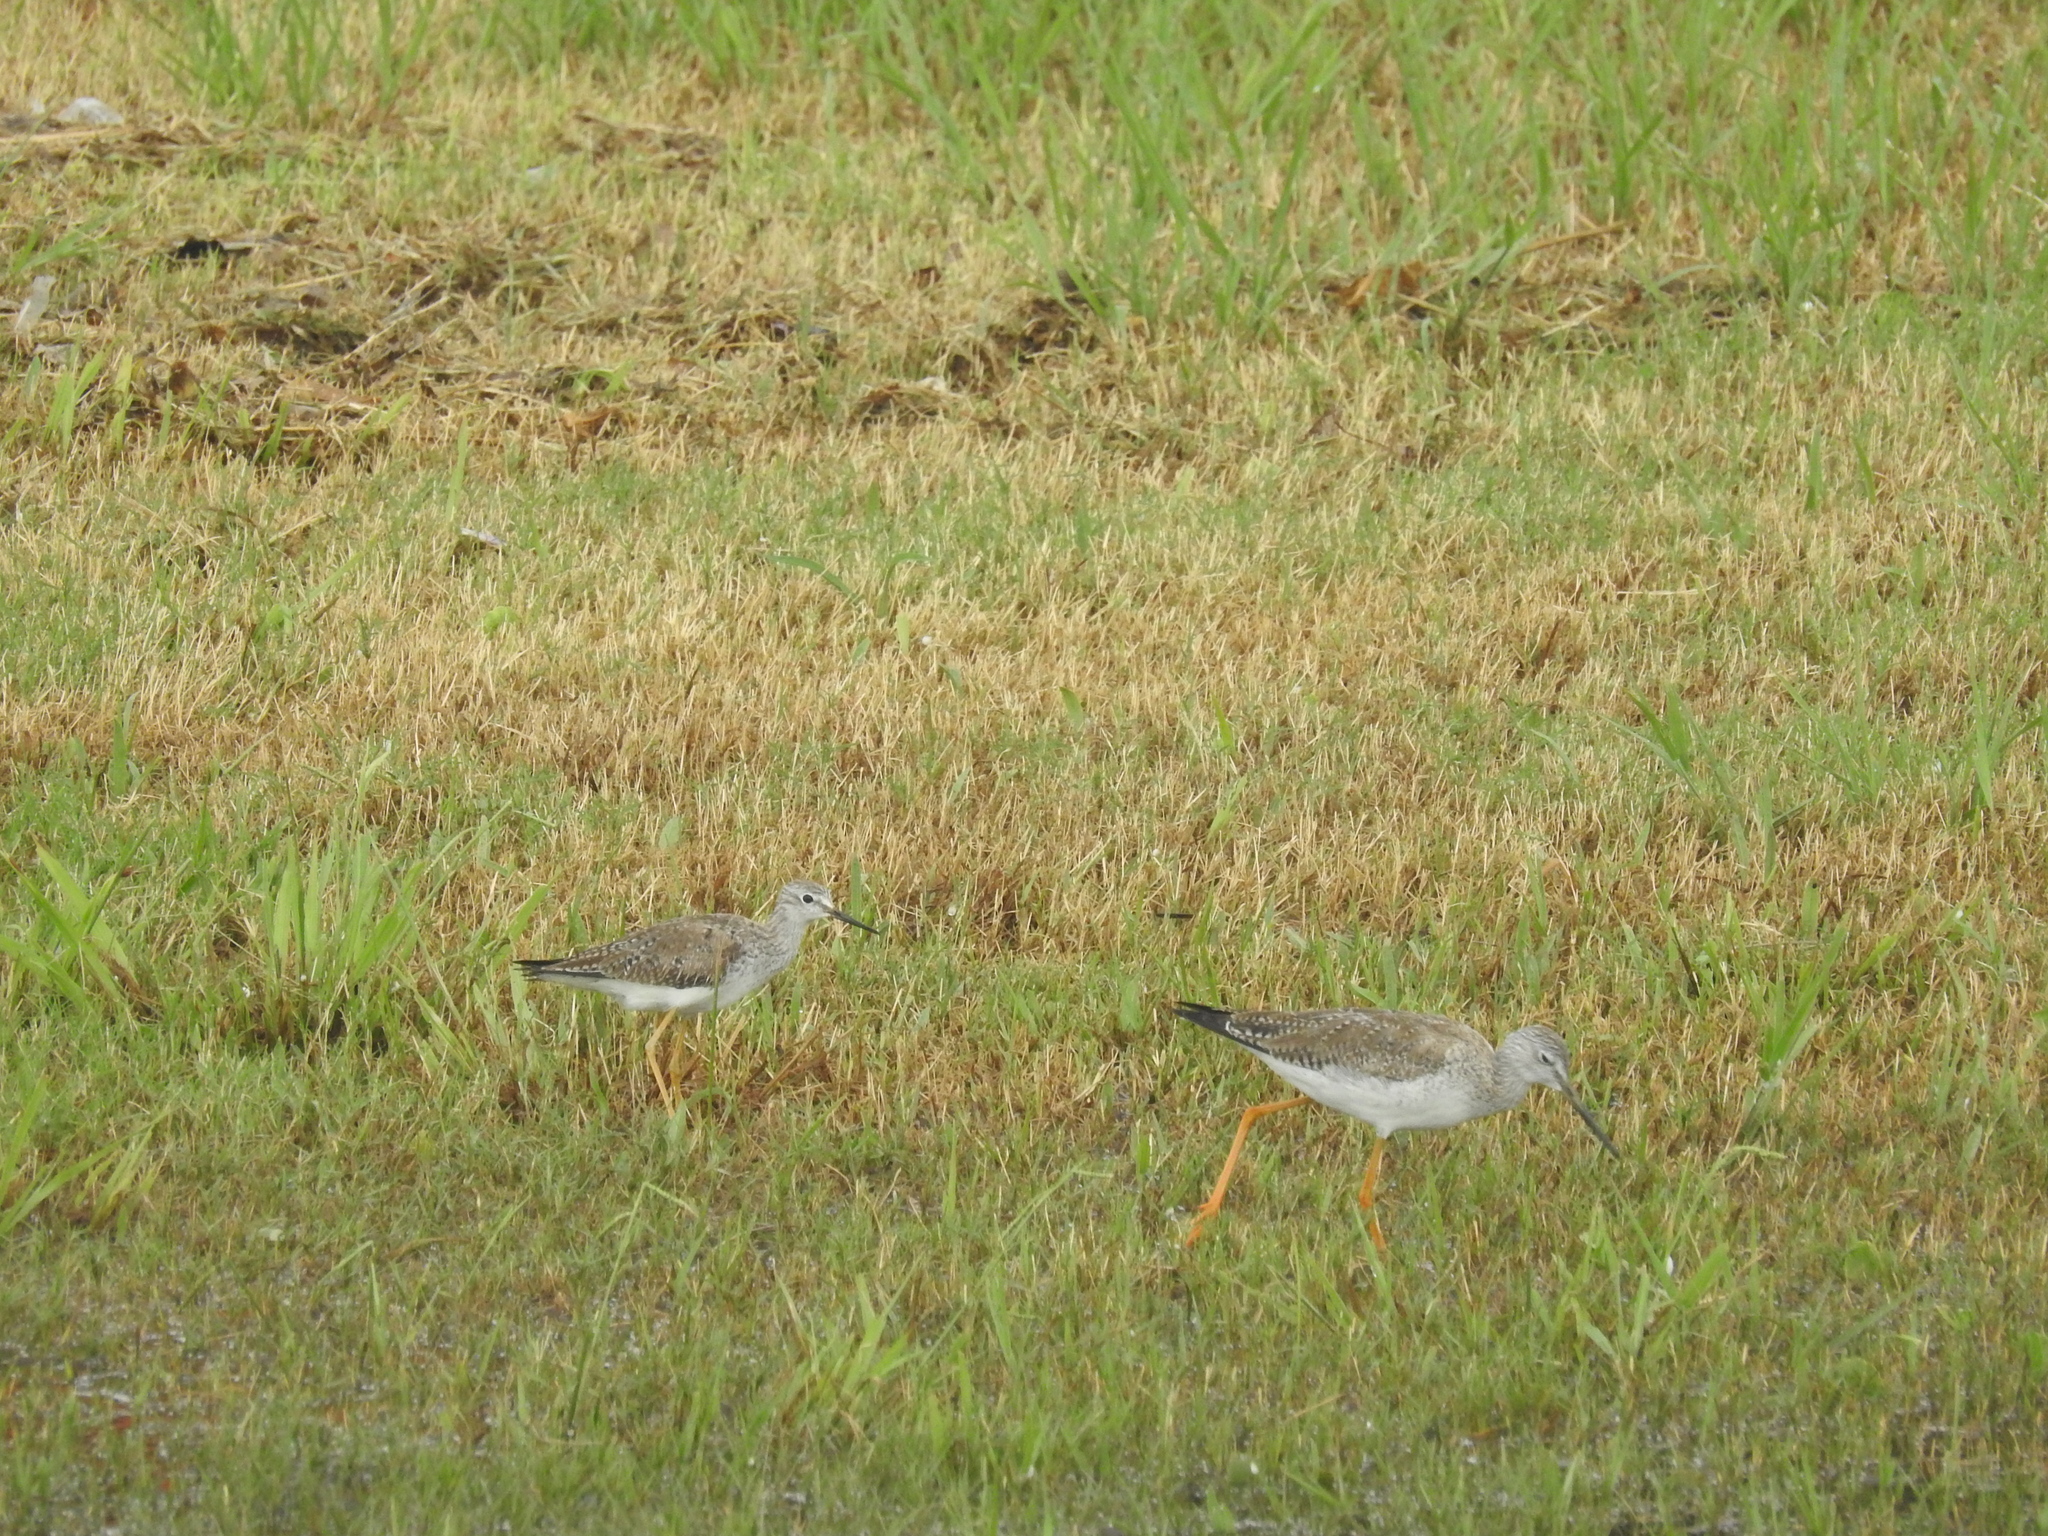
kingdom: Animalia
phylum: Chordata
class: Aves
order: Charadriiformes
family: Scolopacidae
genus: Tringa
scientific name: Tringa melanoleuca
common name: Greater yellowlegs
